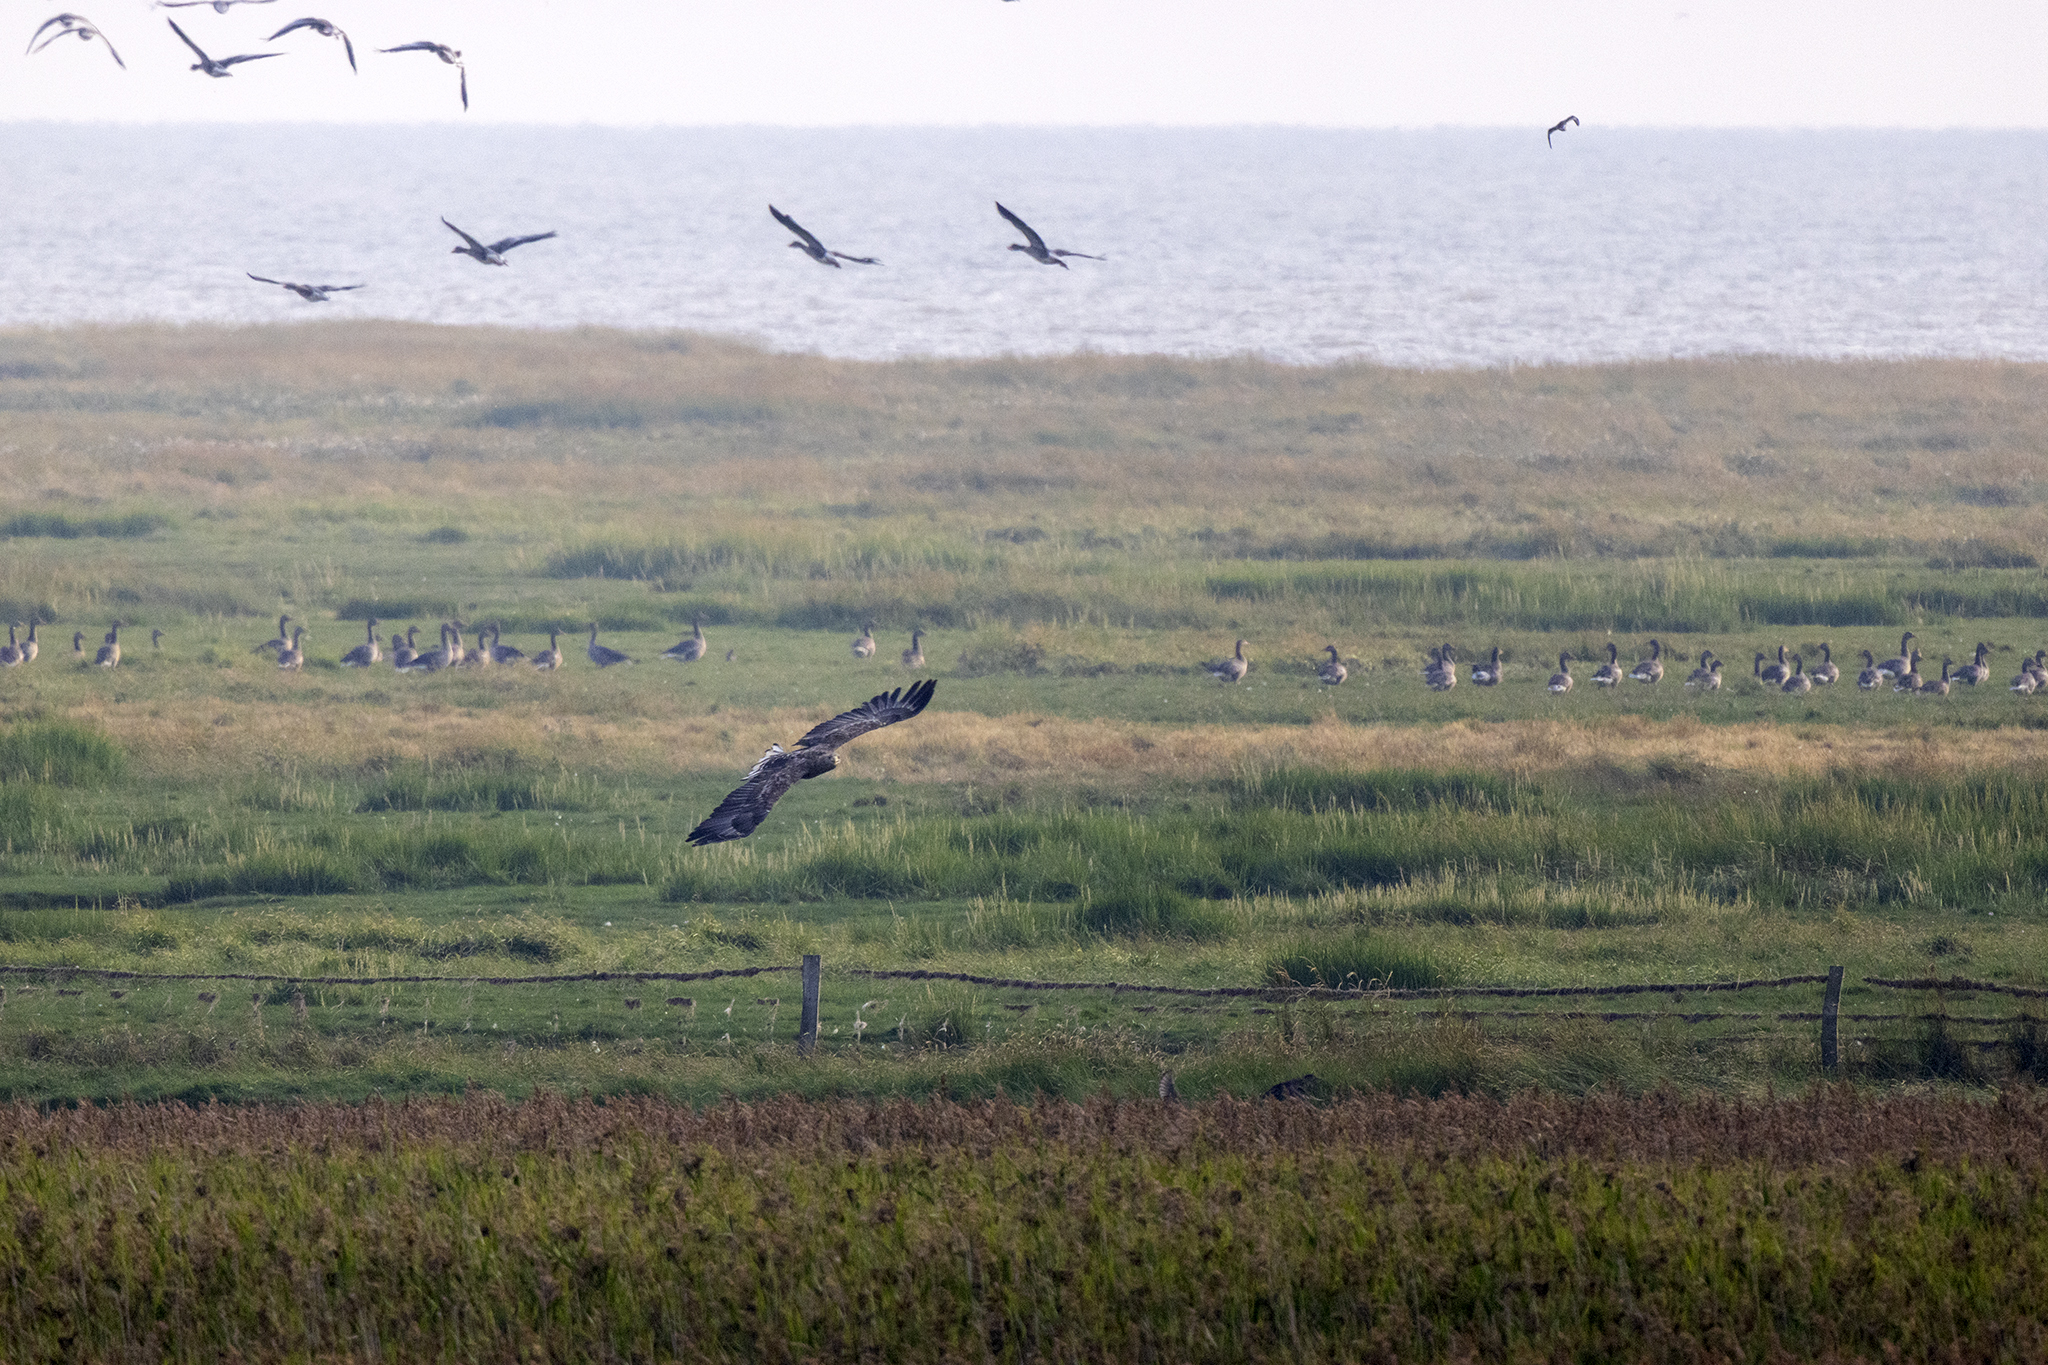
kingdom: Animalia
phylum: Chordata
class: Aves
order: Accipitriformes
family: Accipitridae
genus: Haliaeetus
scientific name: Haliaeetus albicilla
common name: White-tailed eagle
